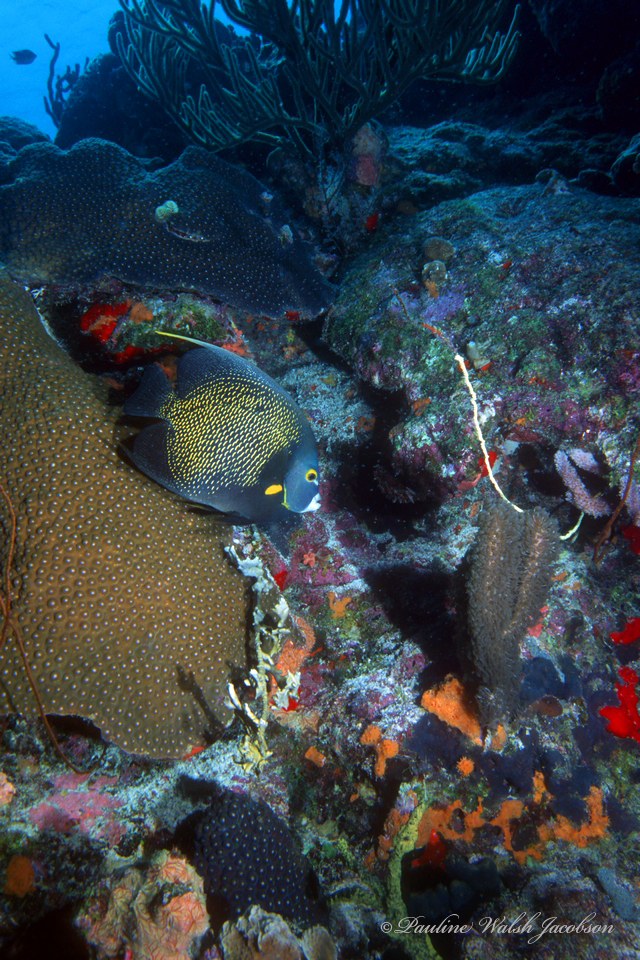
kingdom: Animalia
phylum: Chordata
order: Perciformes
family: Pomacanthidae
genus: Pomacanthus
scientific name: Pomacanthus paru
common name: French angelfish
